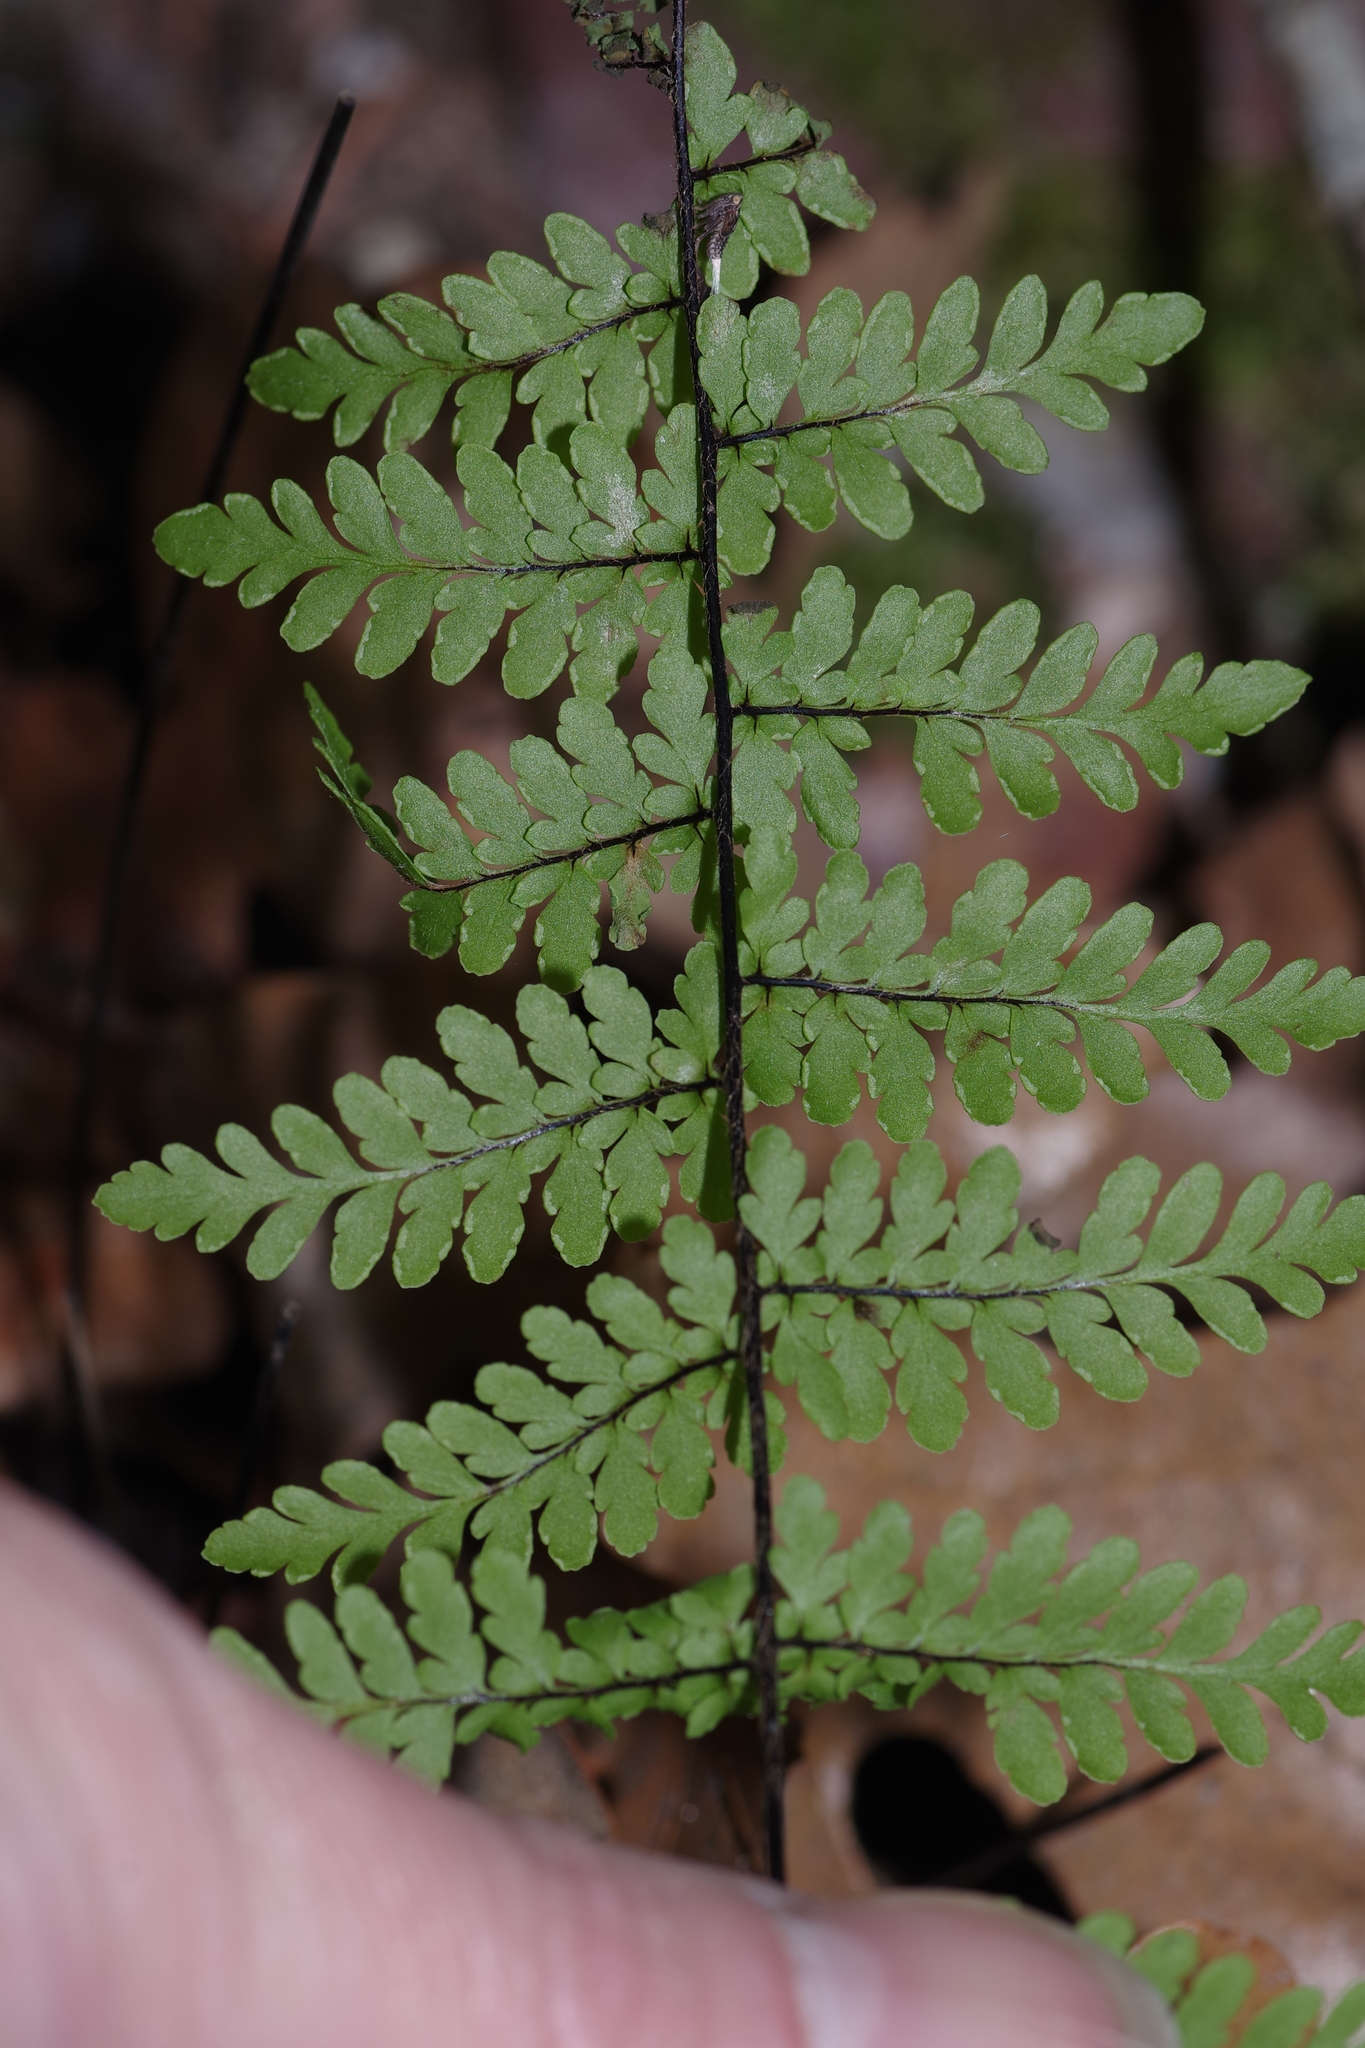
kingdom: Plantae
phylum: Tracheophyta
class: Polypodiopsida
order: Polypodiales
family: Pteridaceae
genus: Myriopteris
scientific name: Myriopteris alabamensis
